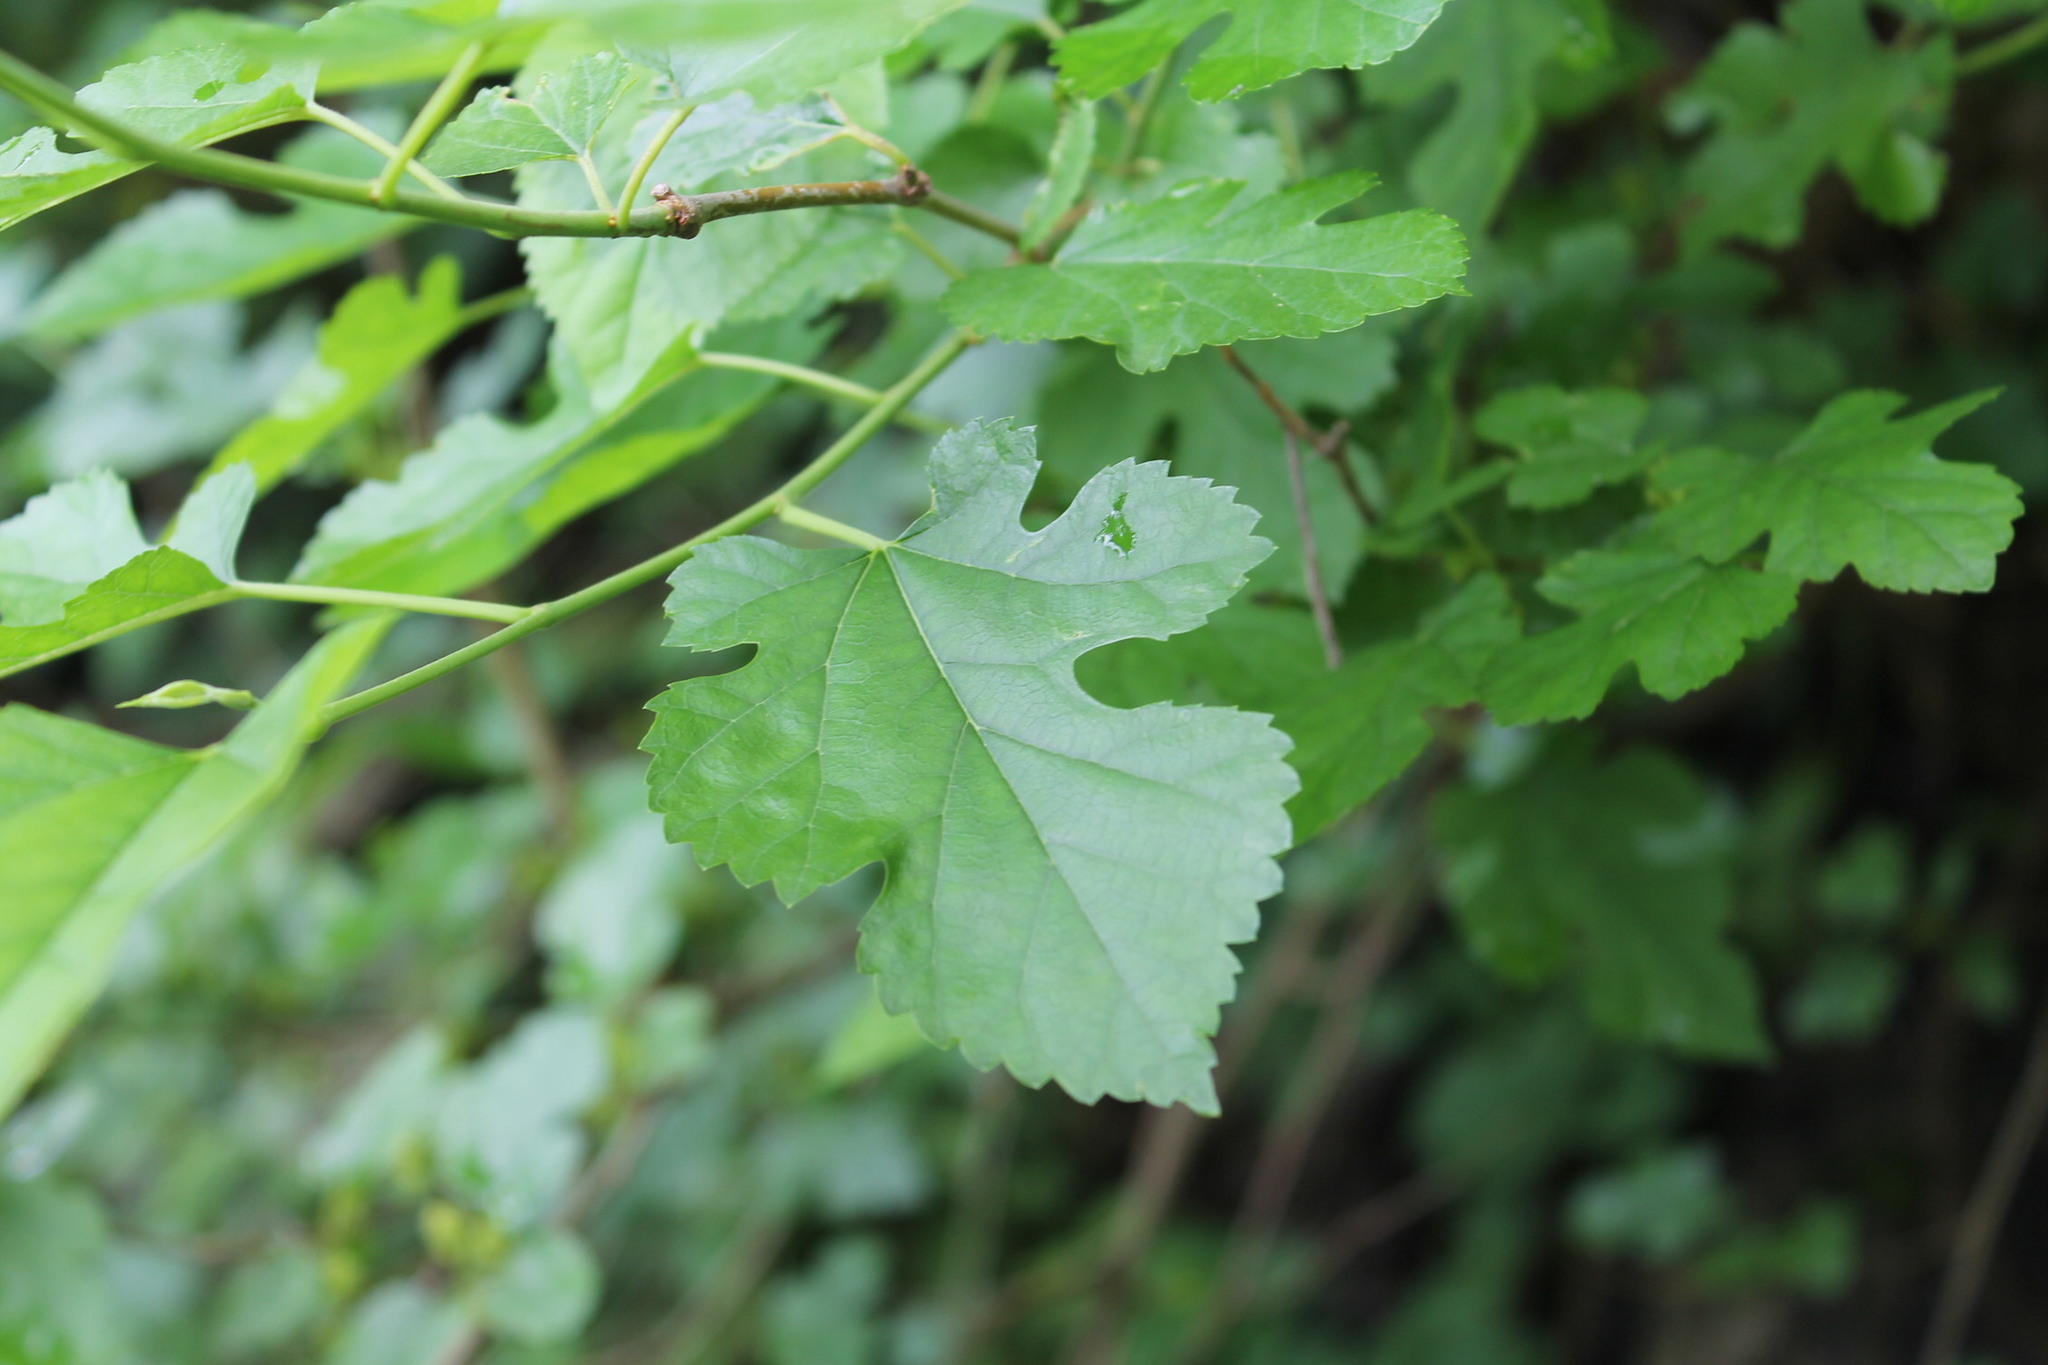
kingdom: Plantae
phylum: Tracheophyta
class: Magnoliopsida
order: Rosales
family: Moraceae
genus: Morus
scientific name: Morus alba
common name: White mulberry
